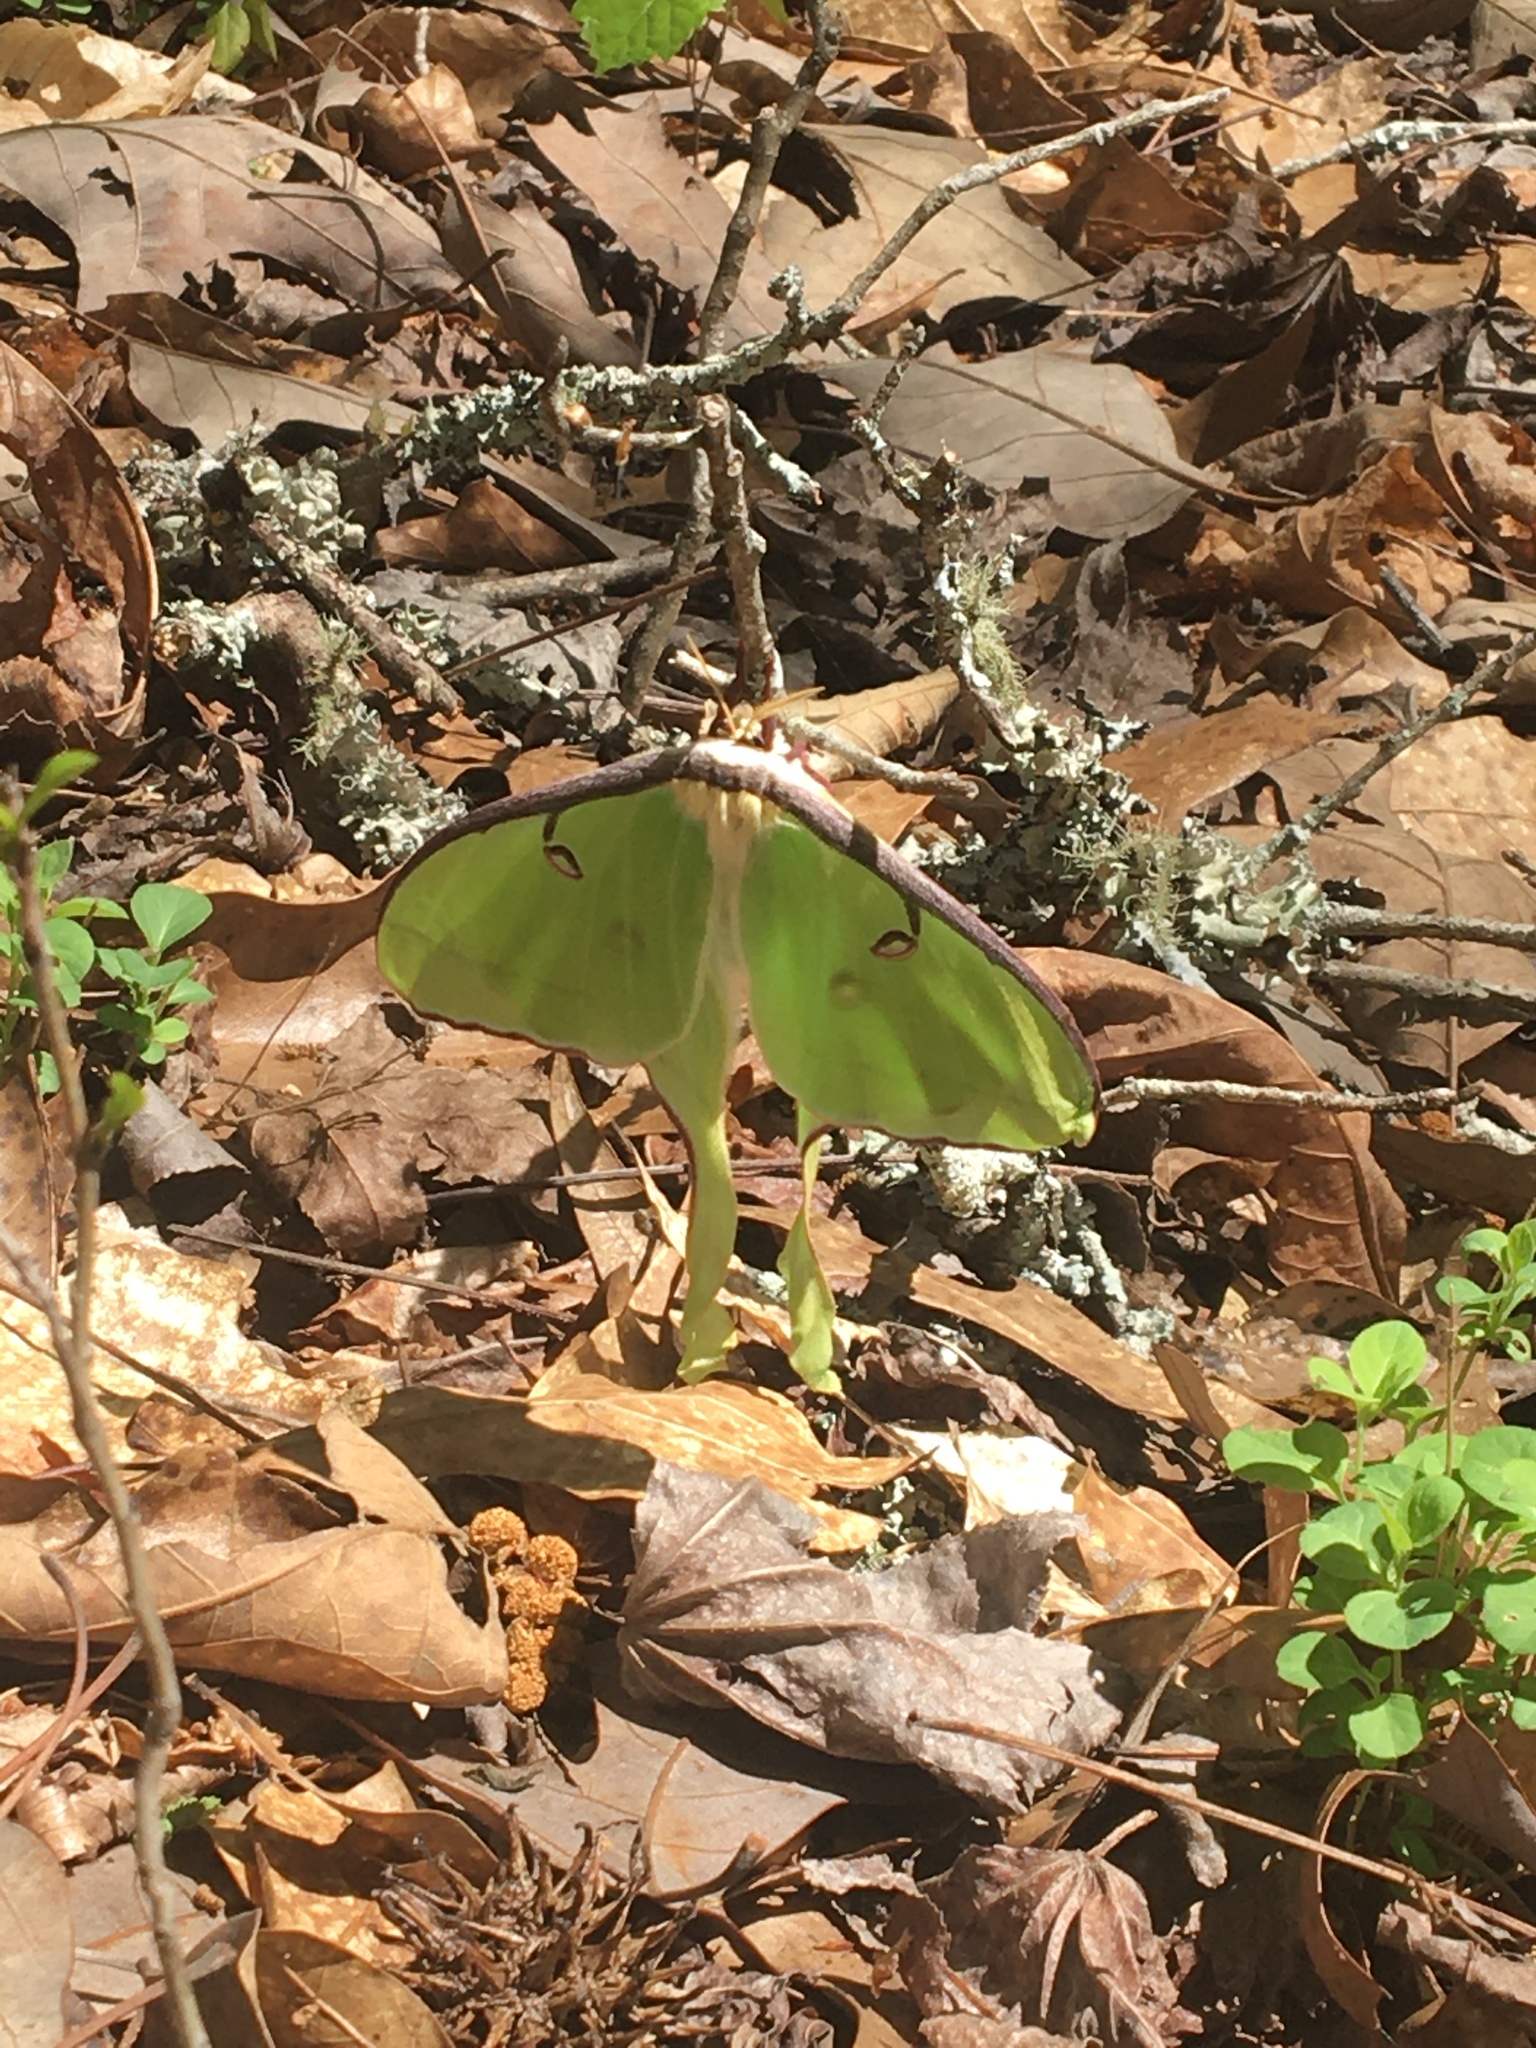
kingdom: Animalia
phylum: Arthropoda
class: Insecta
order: Lepidoptera
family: Saturniidae
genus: Actias
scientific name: Actias luna
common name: Luna moth
